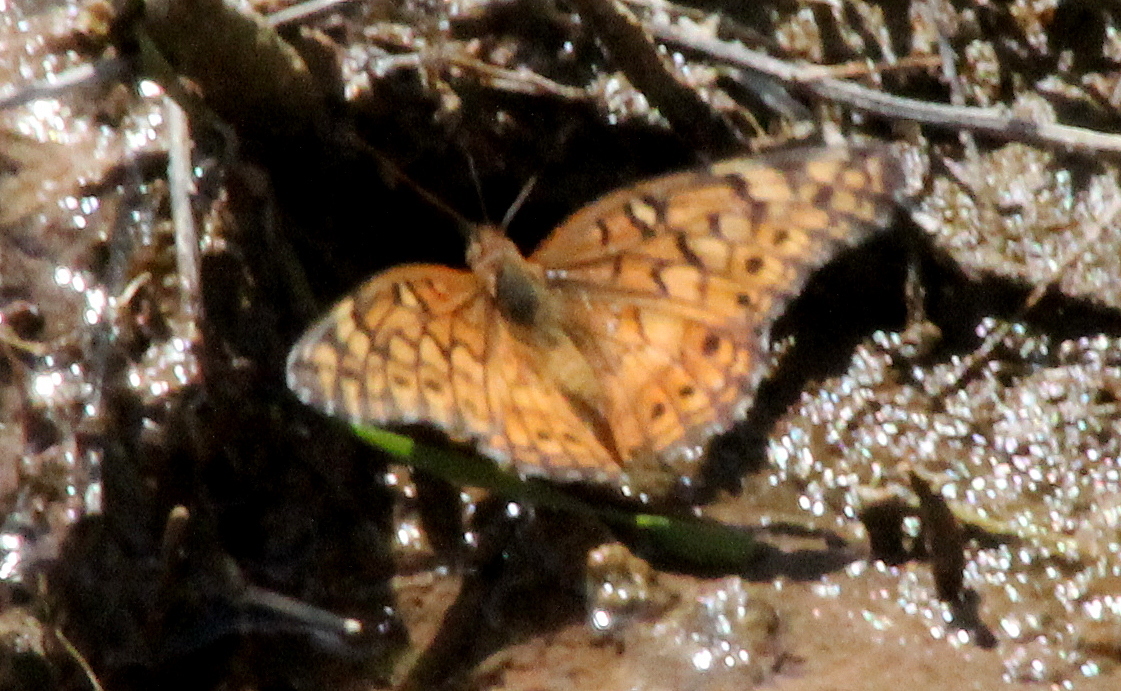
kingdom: Animalia
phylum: Arthropoda
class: Insecta
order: Lepidoptera
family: Nymphalidae
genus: Euptoieta
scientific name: Euptoieta claudia
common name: Variegated fritillary
